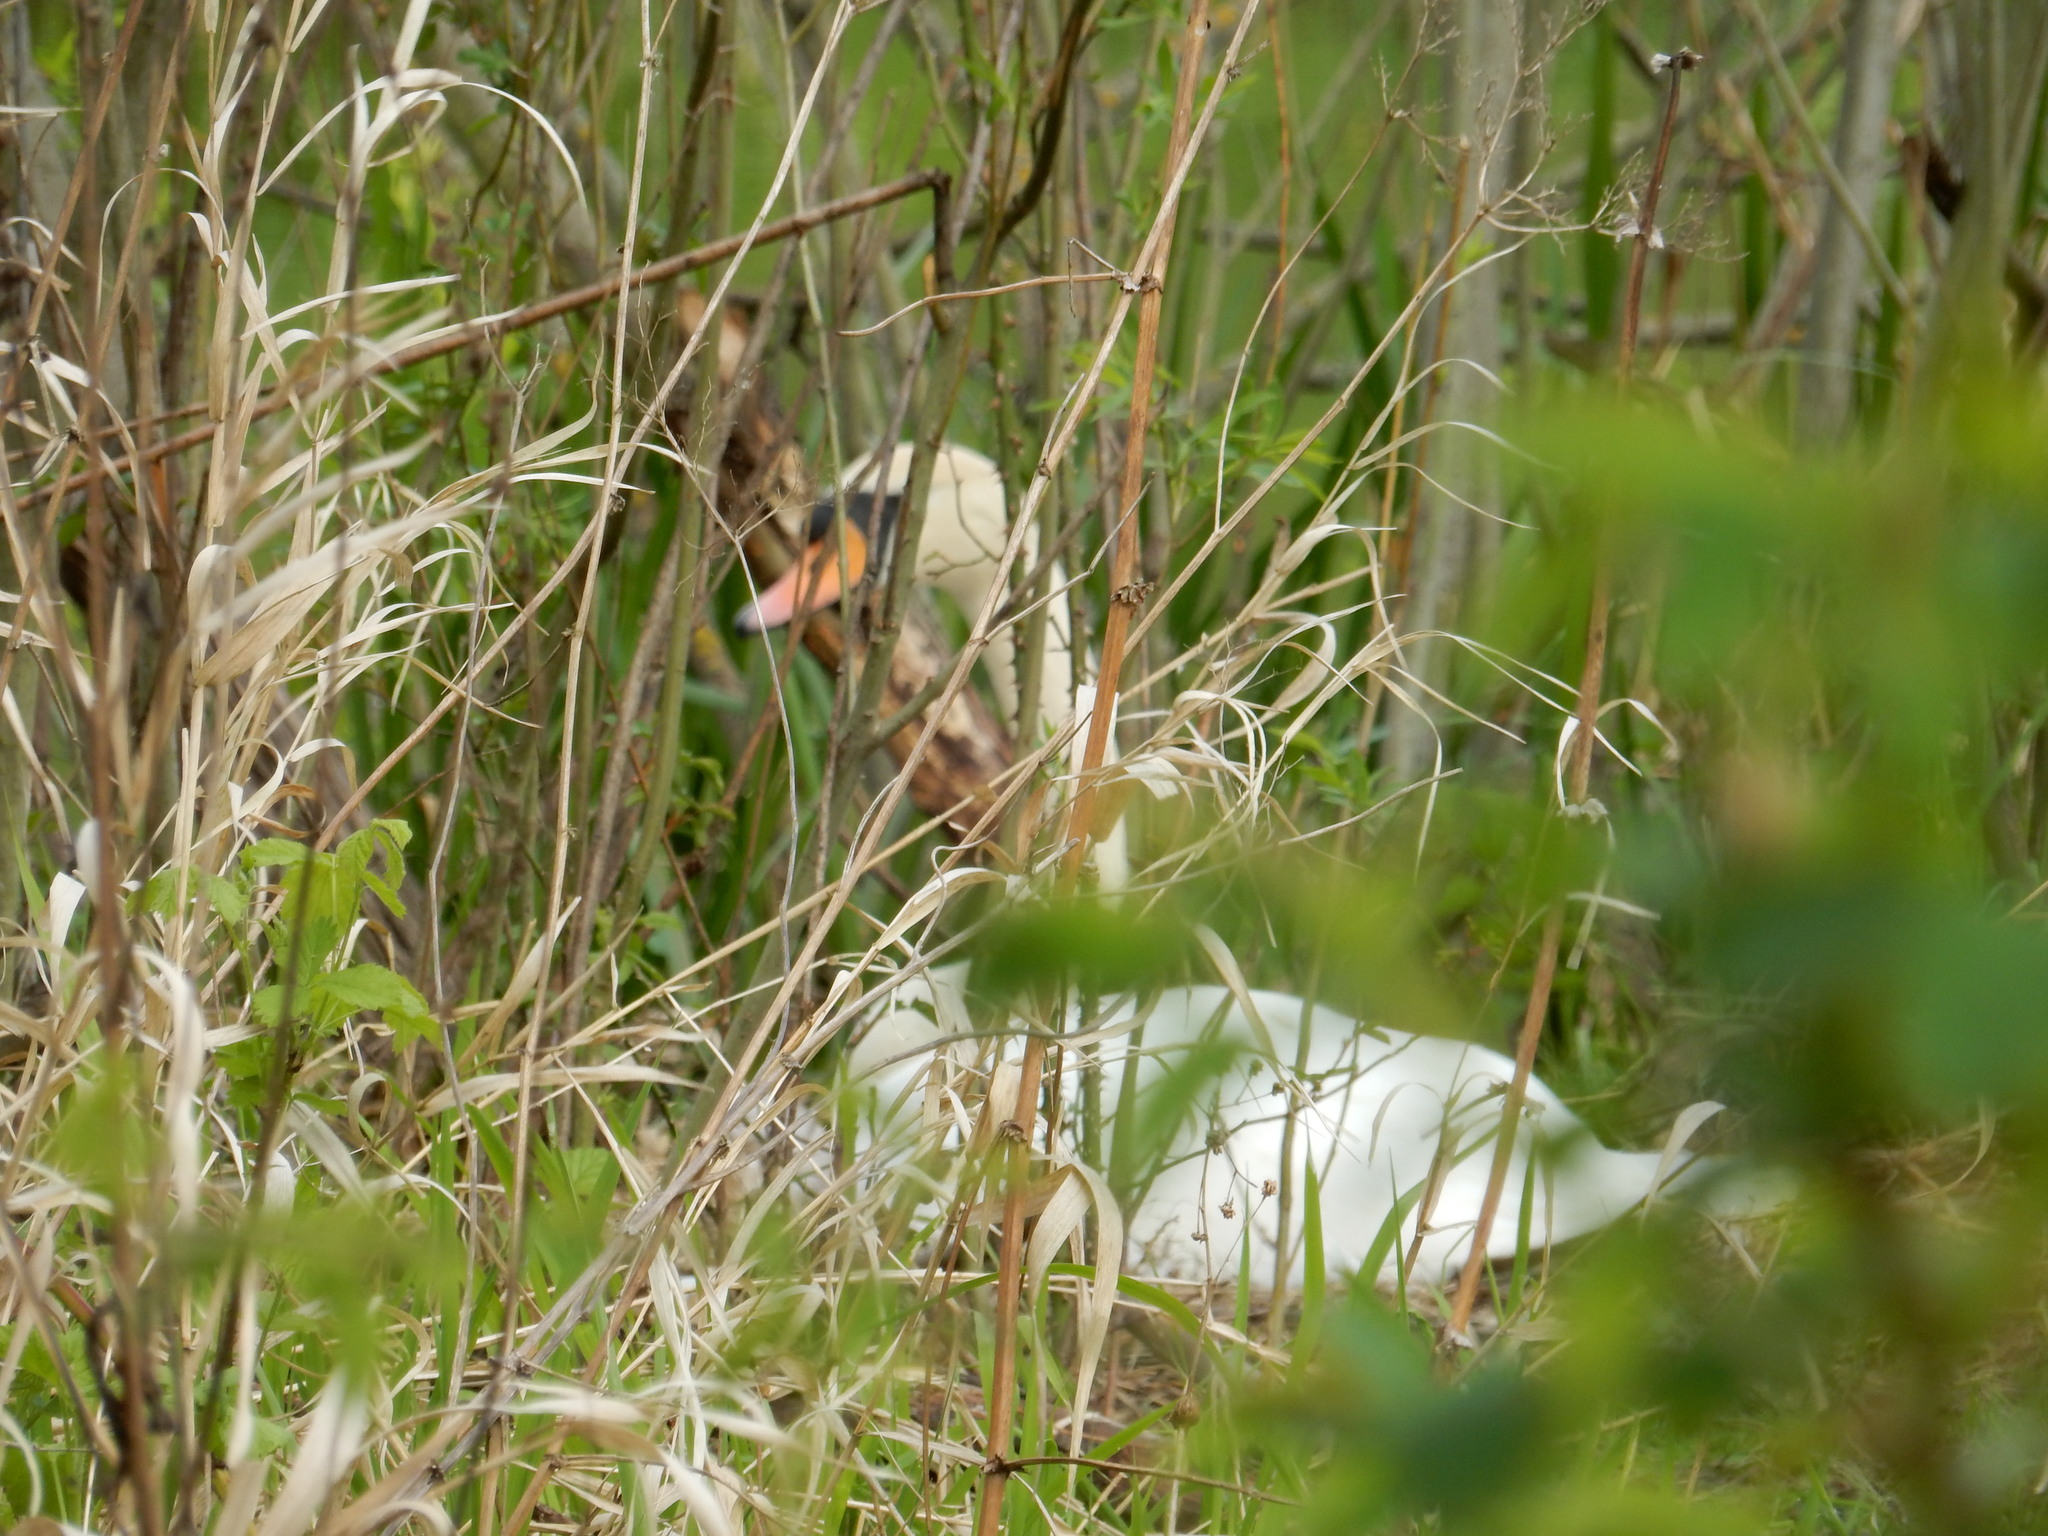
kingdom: Animalia
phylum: Chordata
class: Aves
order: Anseriformes
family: Anatidae
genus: Cygnus
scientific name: Cygnus olor
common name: Mute swan
